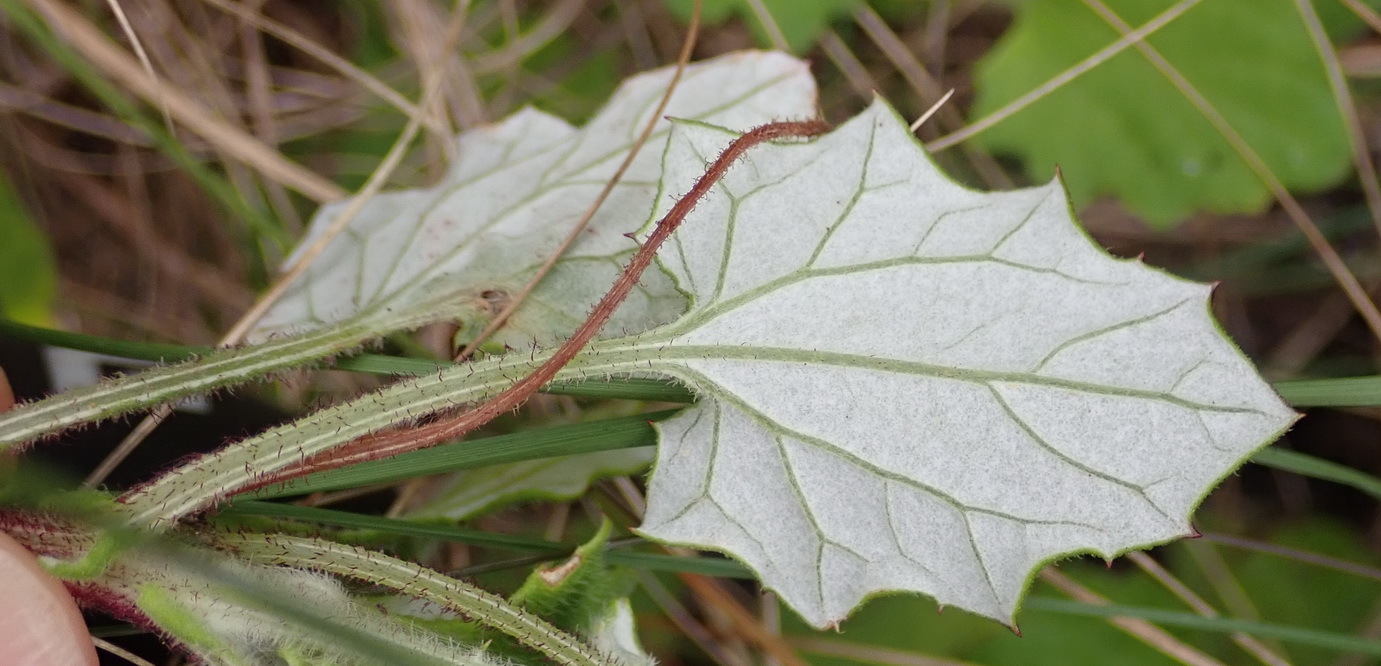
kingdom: Plantae
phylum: Tracheophyta
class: Magnoliopsida
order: Asterales
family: Asteraceae
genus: Arctotis
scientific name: Arctotis perfoliata
